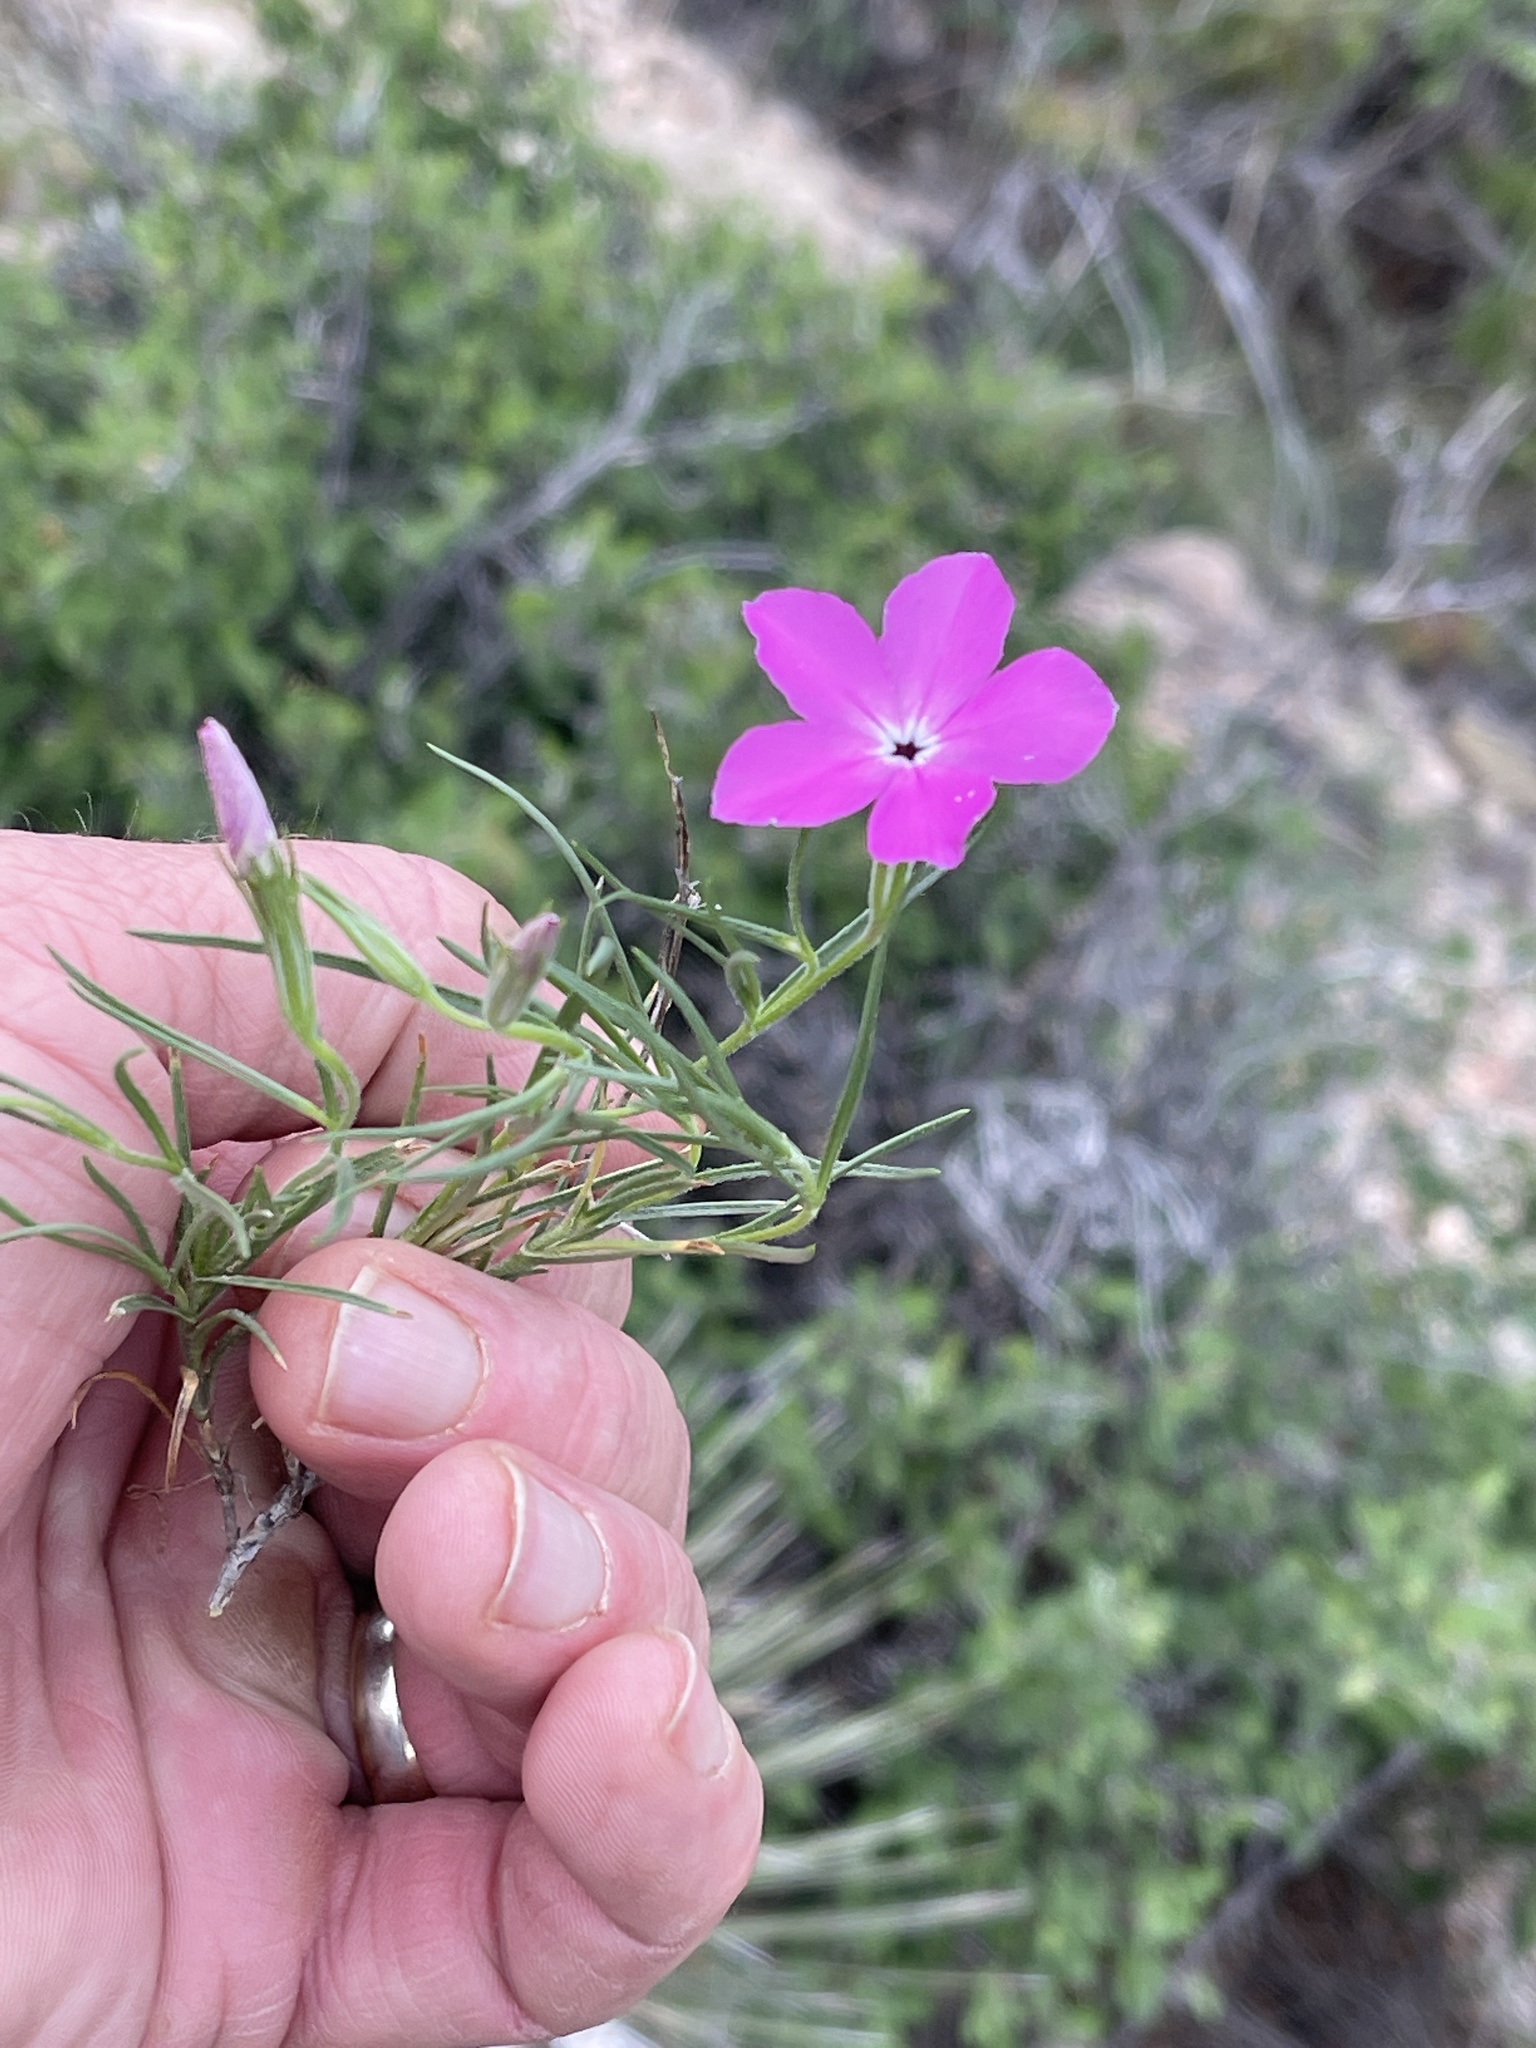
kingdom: Plantae
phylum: Tracheophyta
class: Magnoliopsida
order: Ericales
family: Polemoniaceae
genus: Phlox
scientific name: Phlox nana
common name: Santa fe phlox
